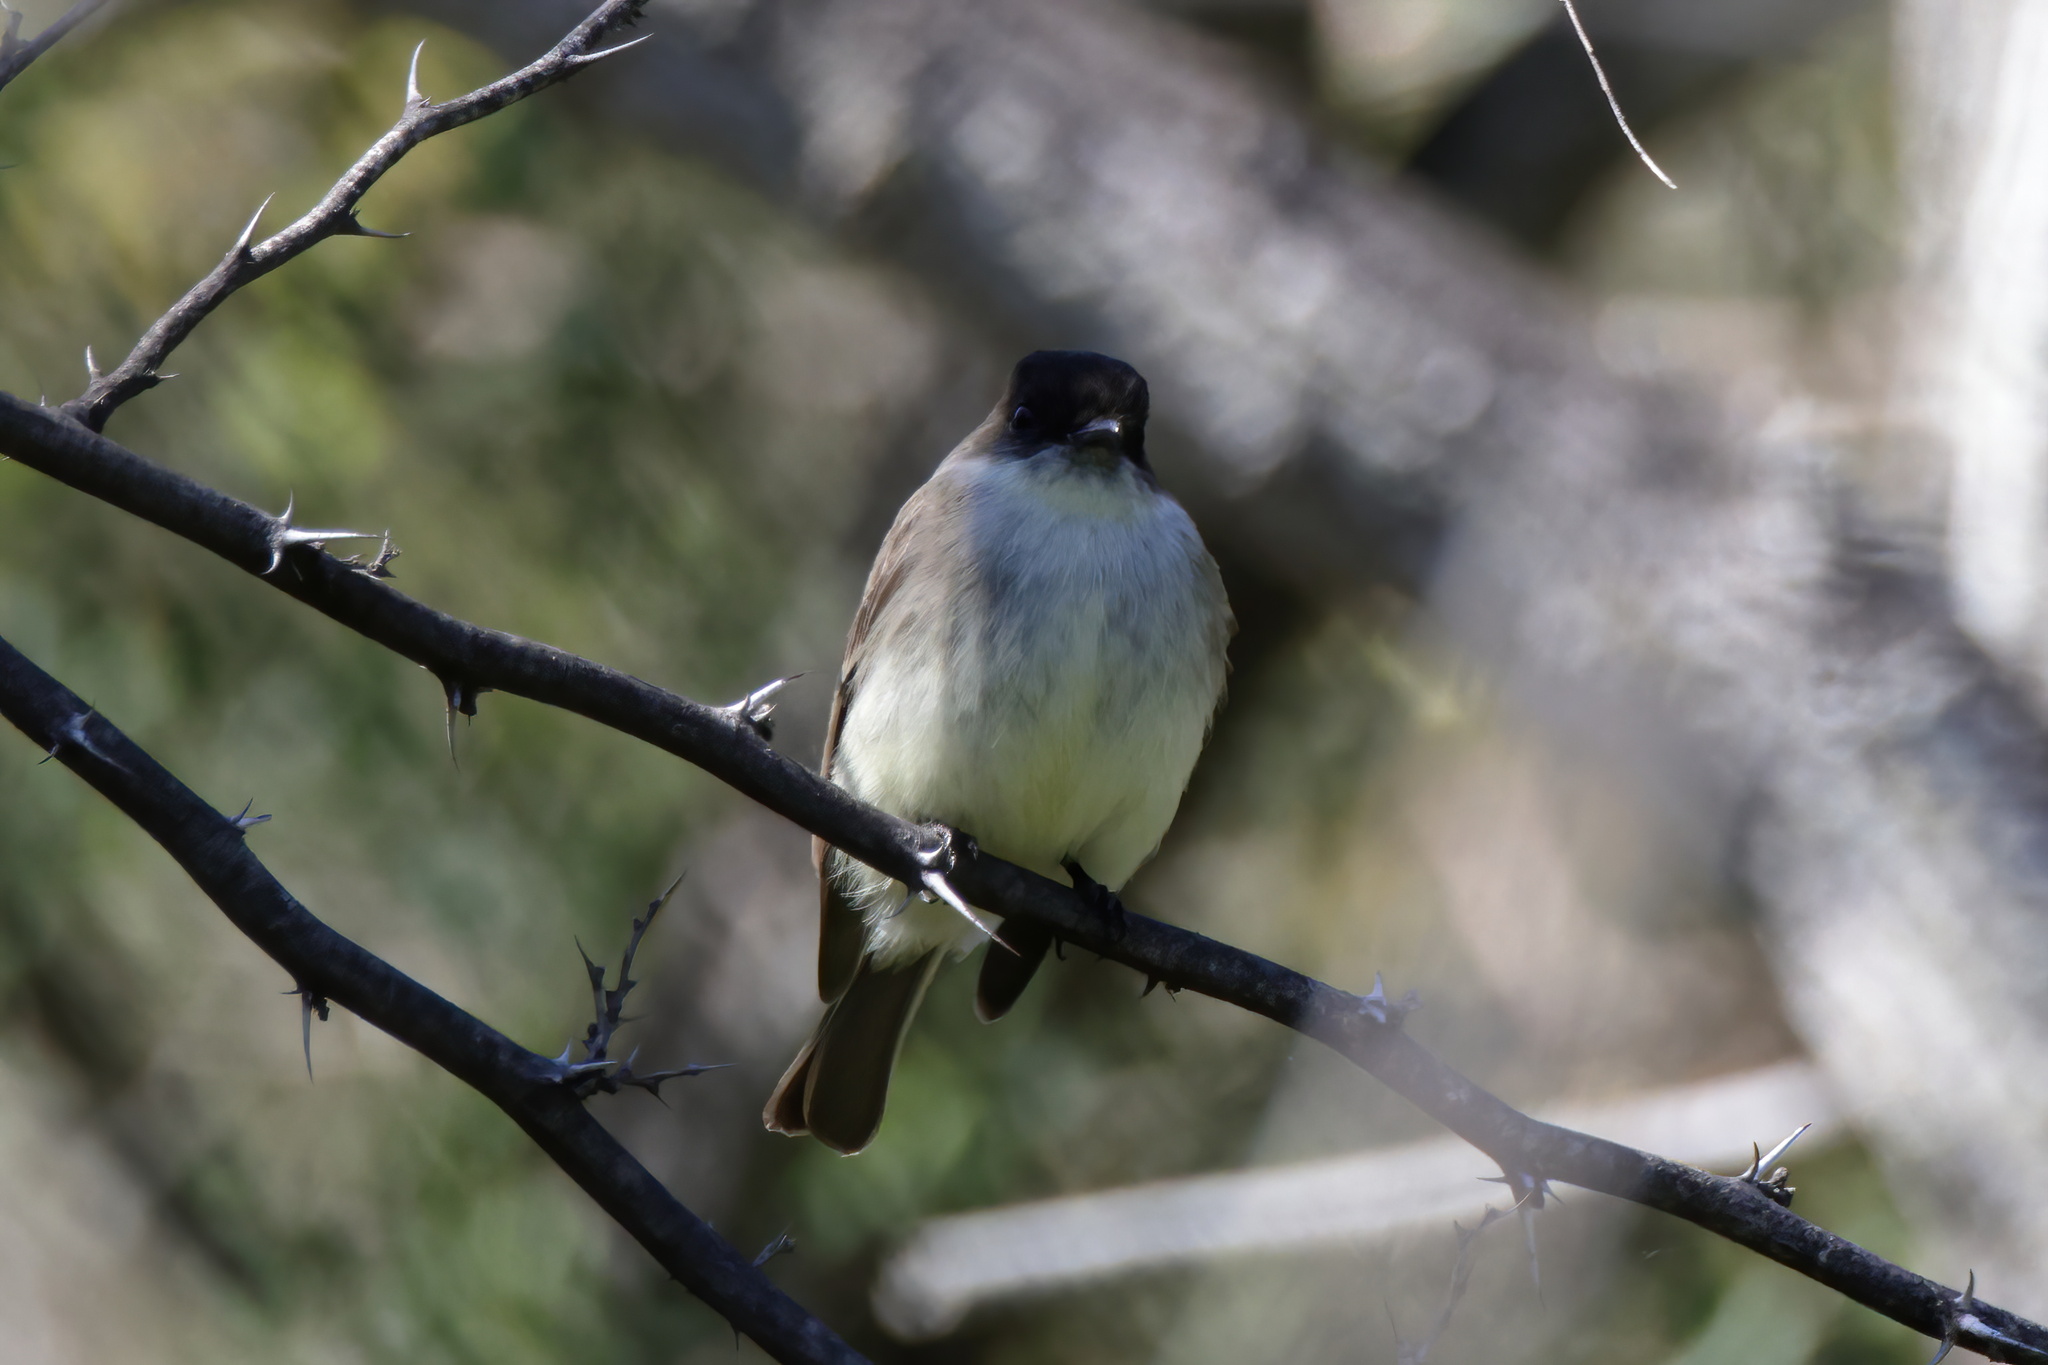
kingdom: Animalia
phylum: Chordata
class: Aves
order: Passeriformes
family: Tyrannidae
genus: Sayornis
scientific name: Sayornis phoebe
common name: Eastern phoebe
